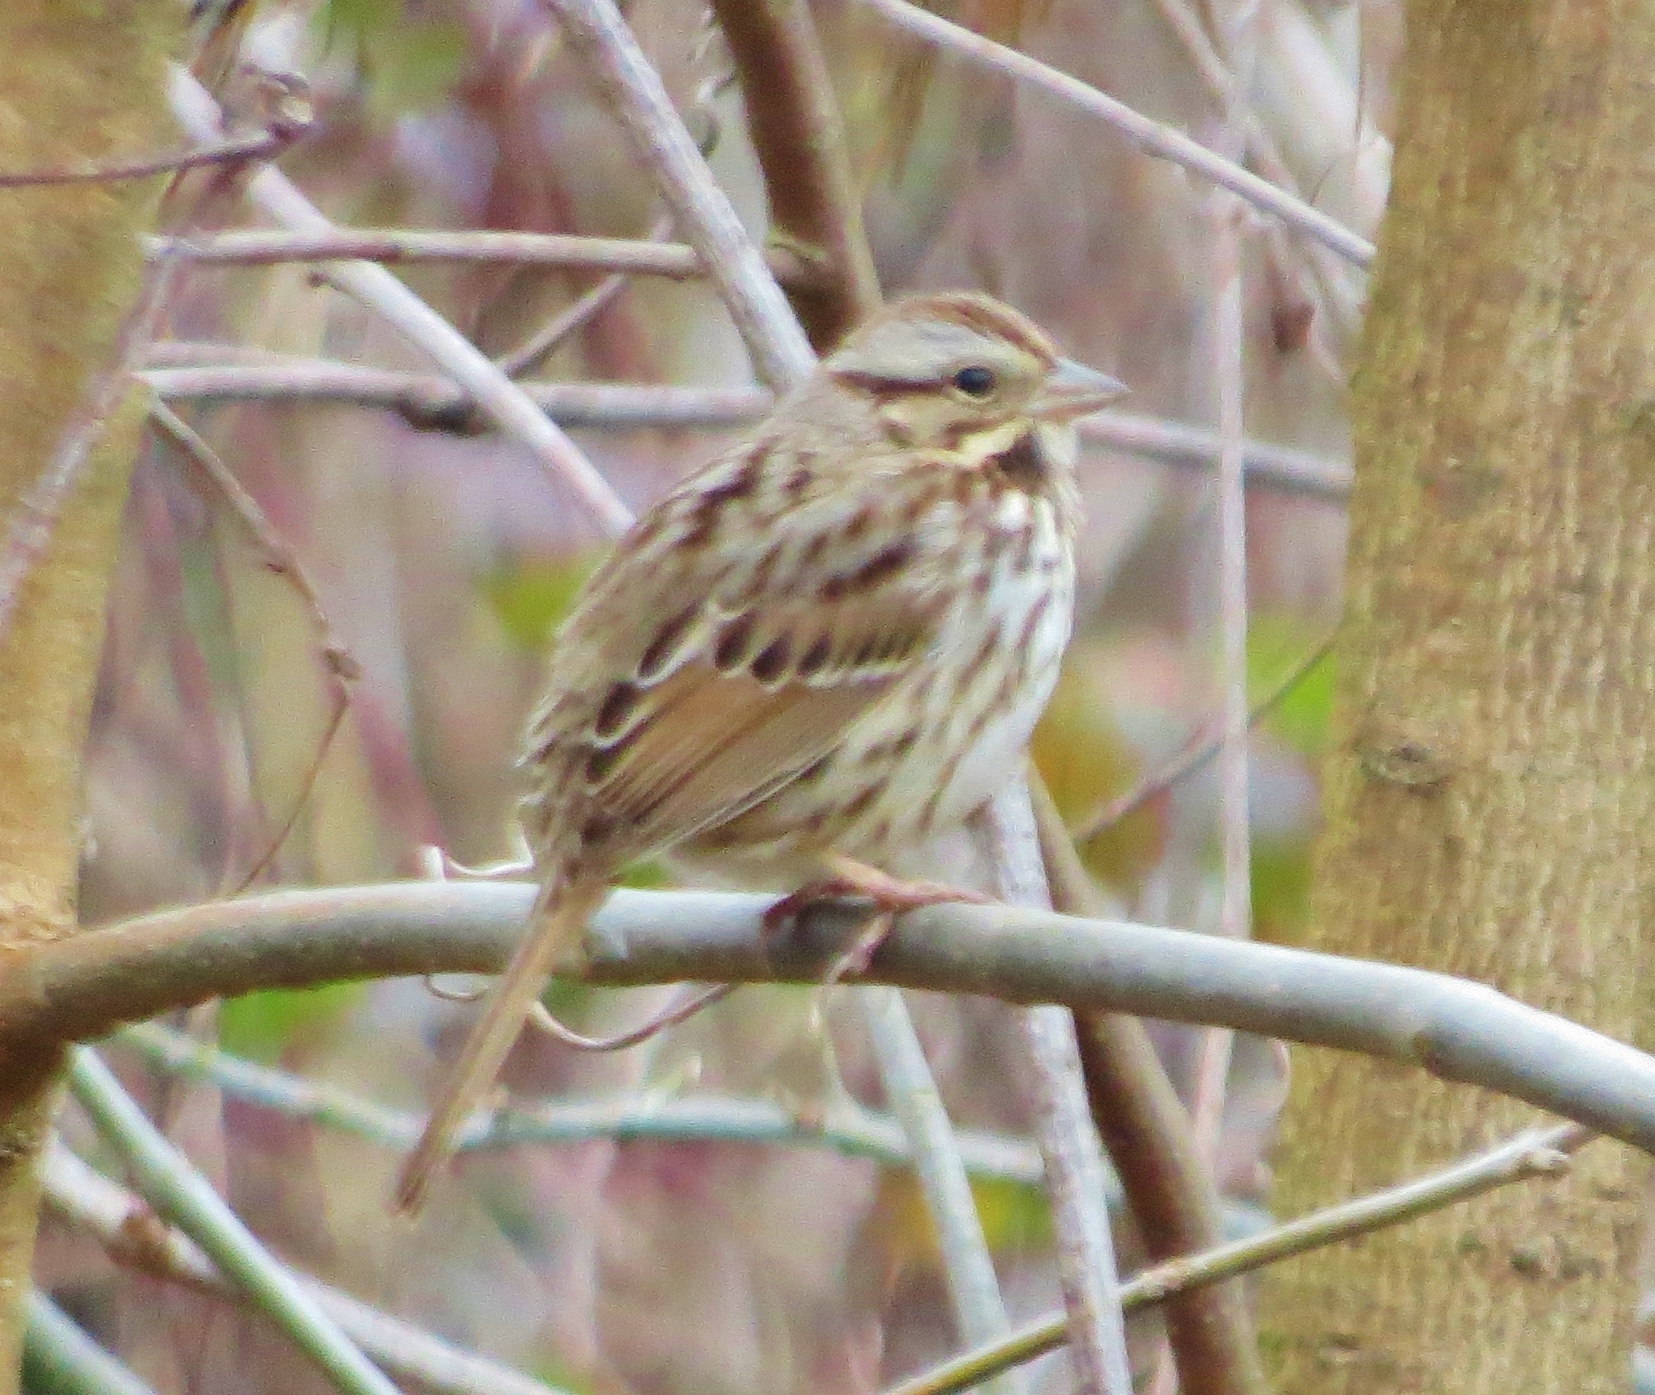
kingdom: Animalia
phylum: Chordata
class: Aves
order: Passeriformes
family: Passerellidae
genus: Melospiza
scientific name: Melospiza melodia
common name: Song sparrow
